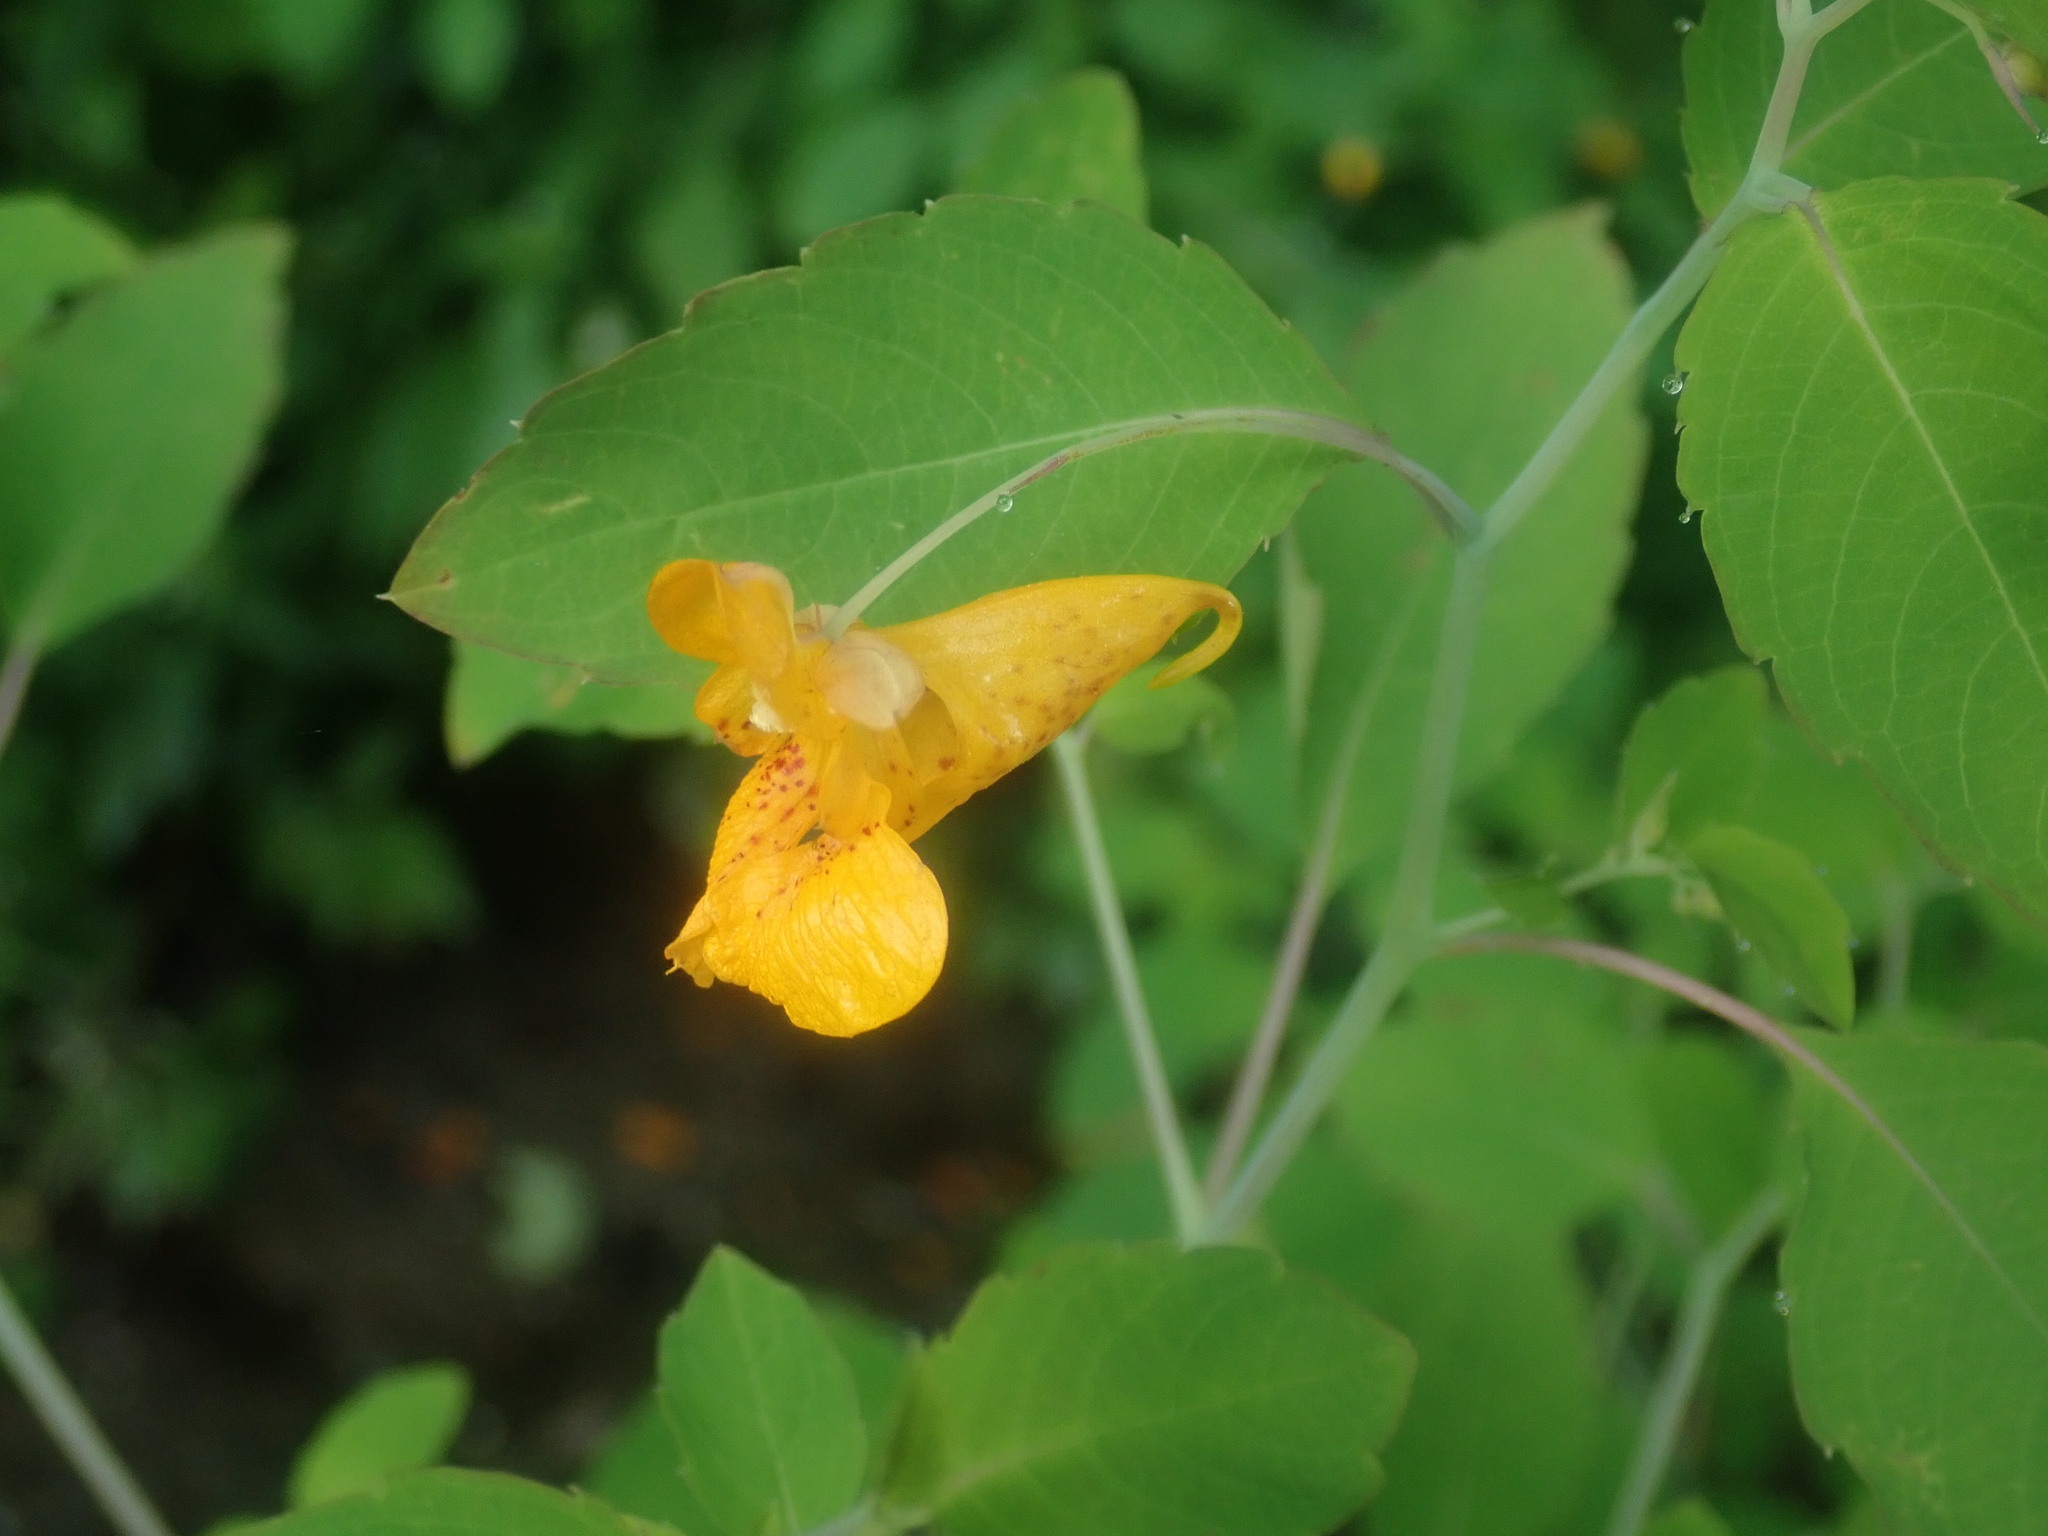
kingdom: Plantae
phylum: Tracheophyta
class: Magnoliopsida
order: Ericales
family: Balsaminaceae
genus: Impatiens
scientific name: Impatiens capensis
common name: Orange balsam
